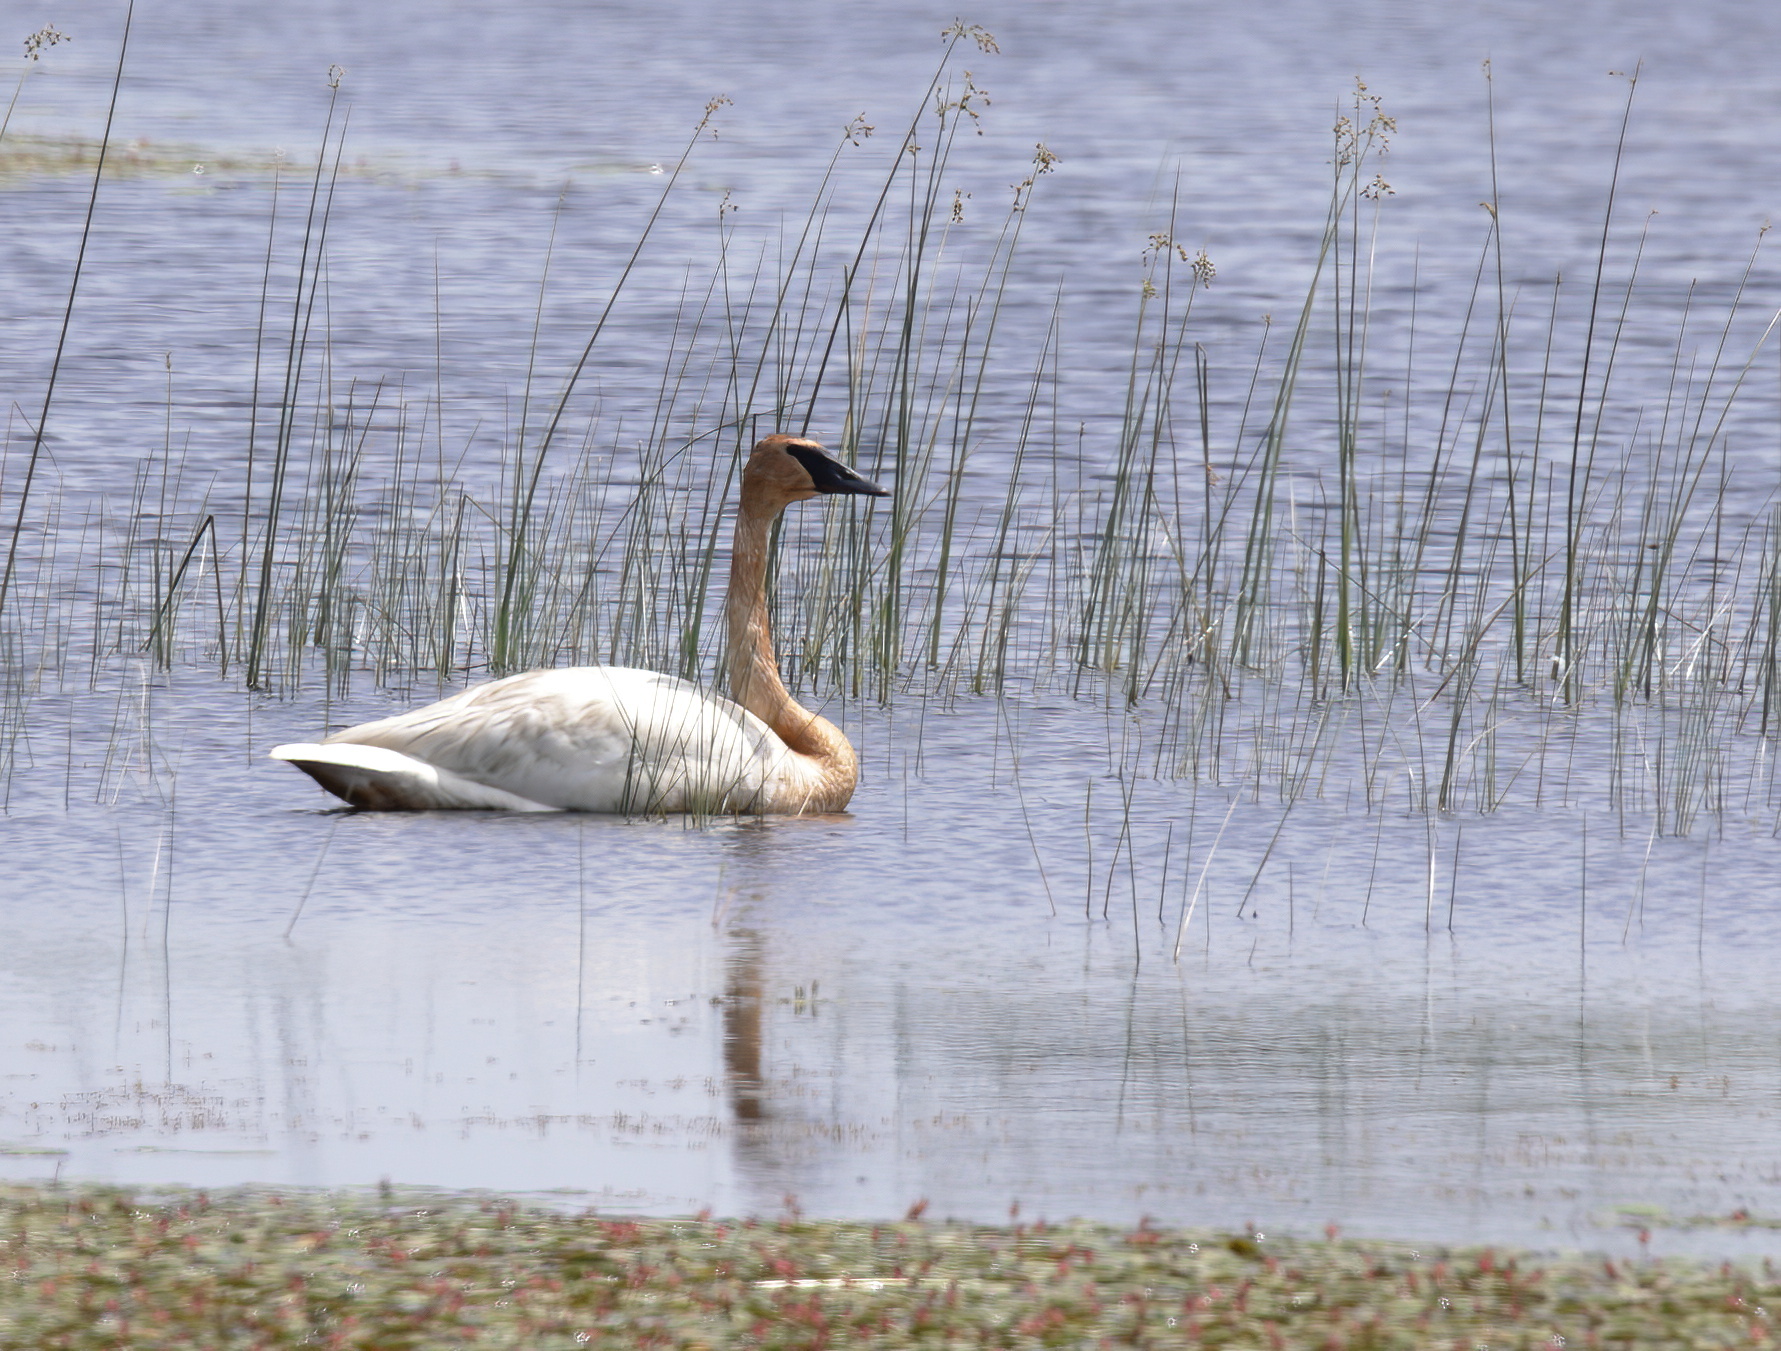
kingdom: Animalia
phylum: Chordata
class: Aves
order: Anseriformes
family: Anatidae
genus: Cygnus
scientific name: Cygnus buccinator
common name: Trumpeter swan
